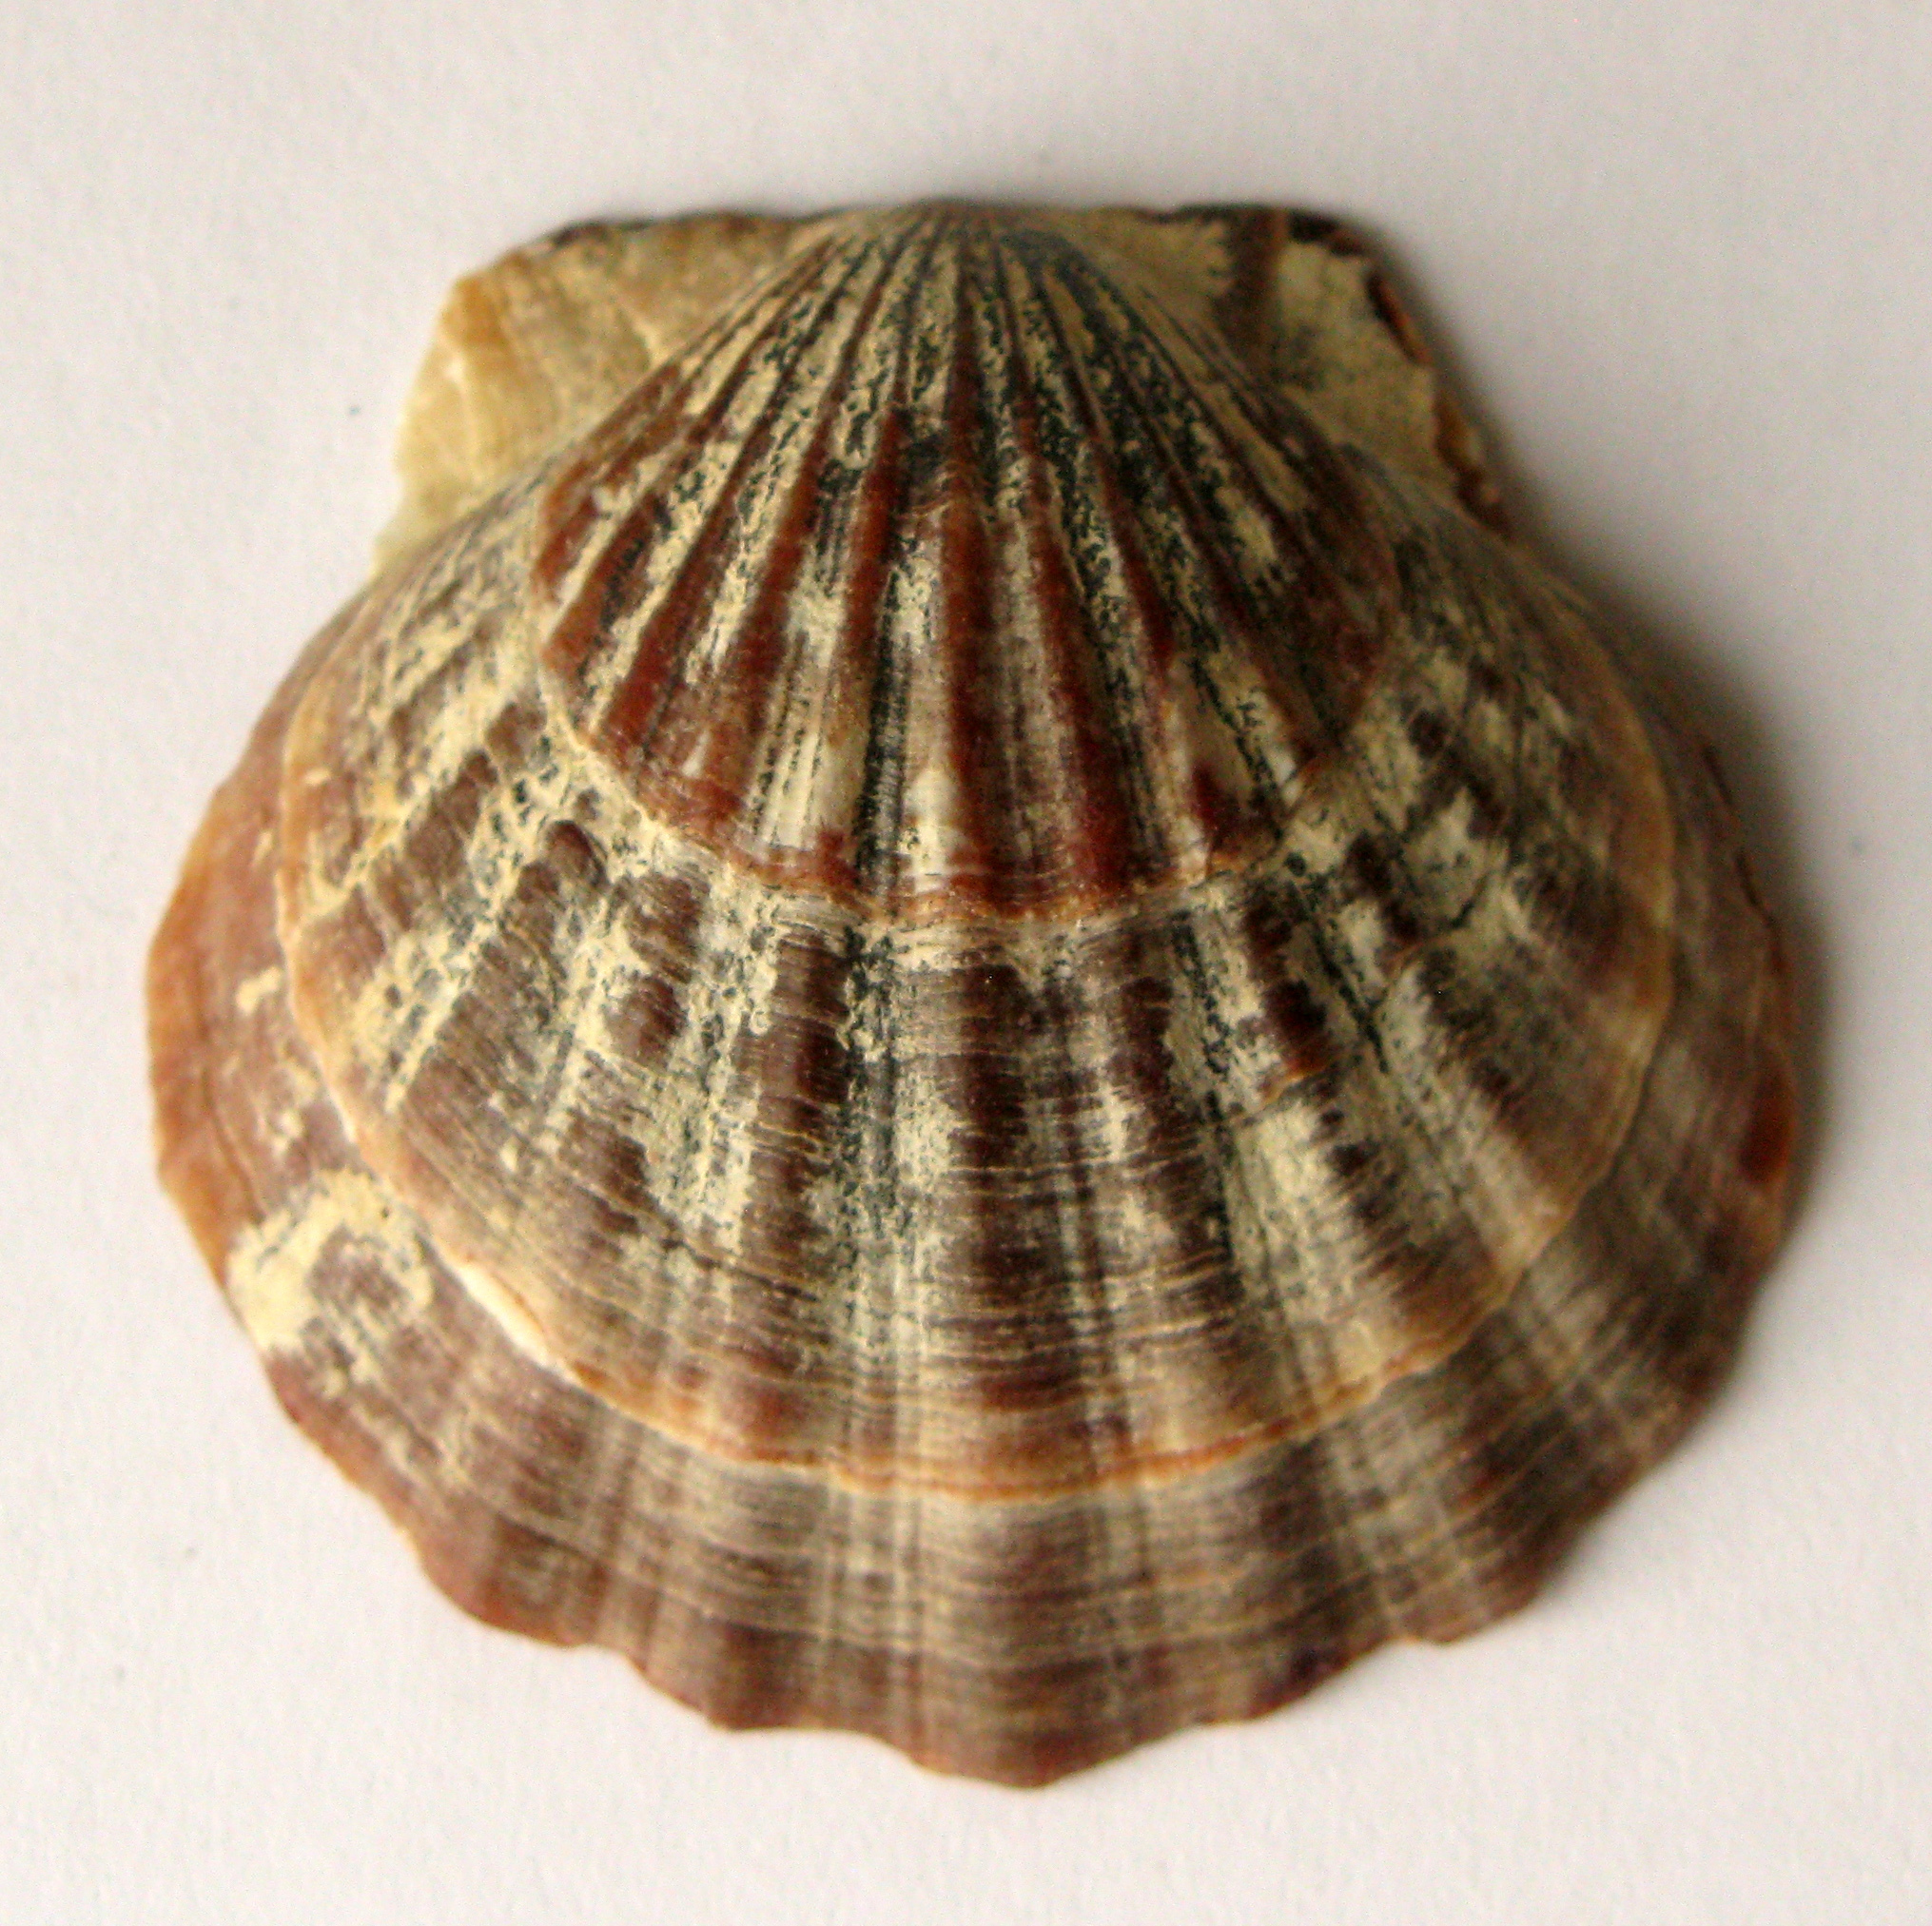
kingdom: Animalia
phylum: Mollusca
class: Bivalvia
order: Pectinida
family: Pectinidae
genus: Flexopecten
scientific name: Flexopecten glaber
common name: Smooth scallop
